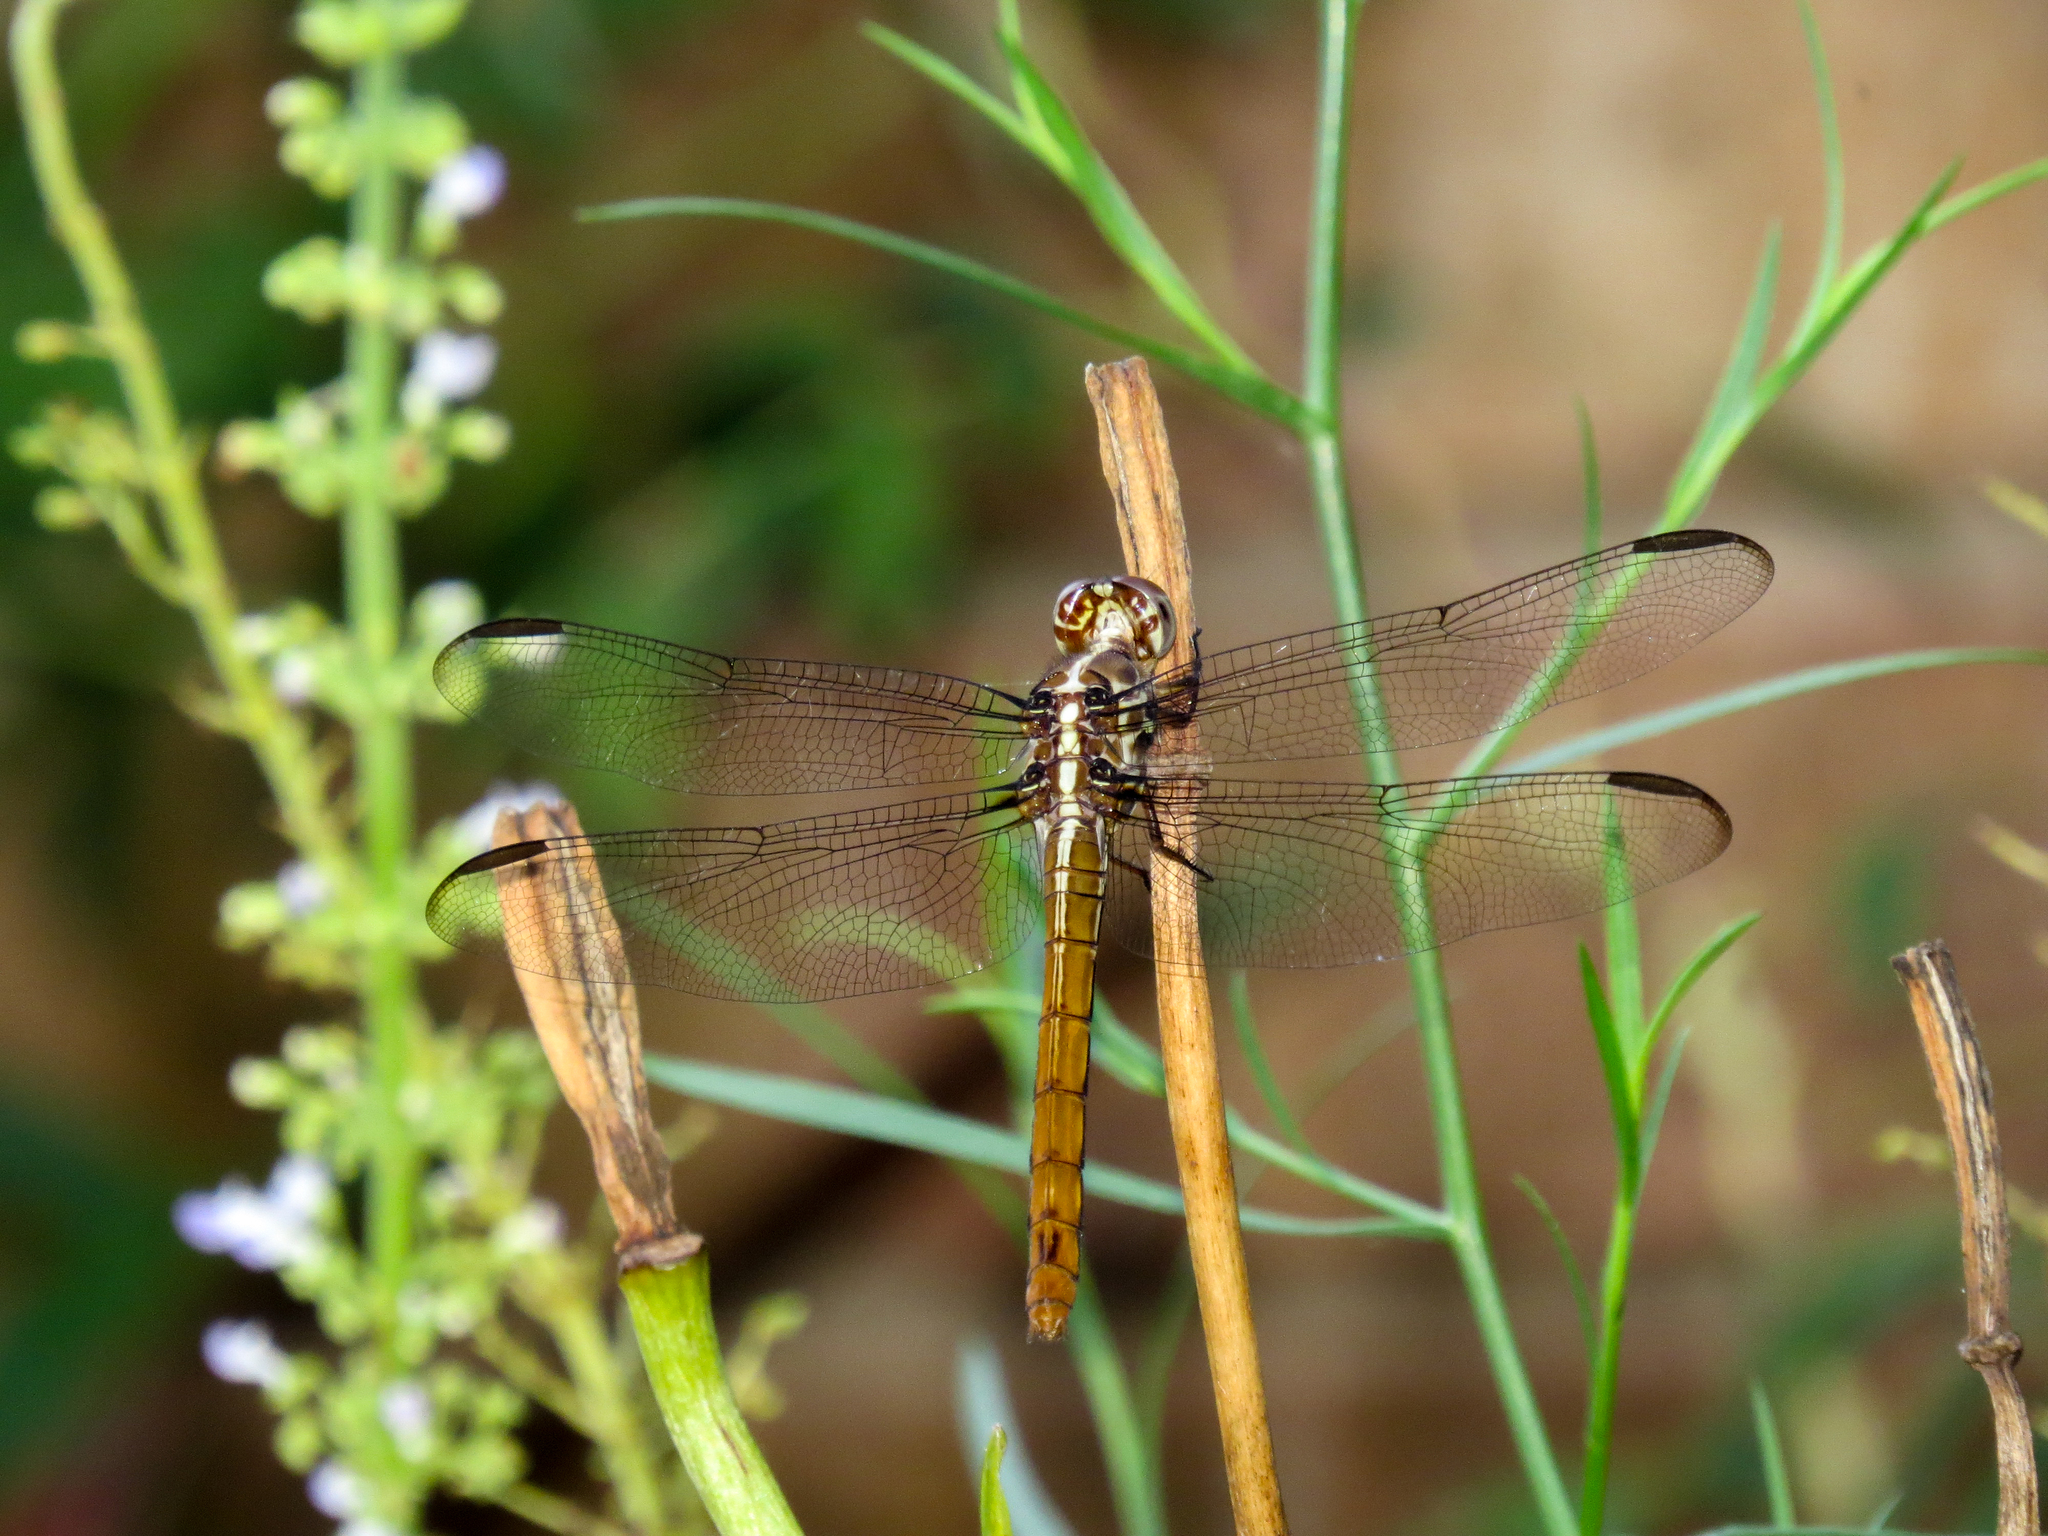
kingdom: Animalia
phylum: Arthropoda
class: Insecta
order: Odonata
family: Libellulidae
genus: Orthemis
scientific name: Orthemis ferruginea
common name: Roseate skimmer
